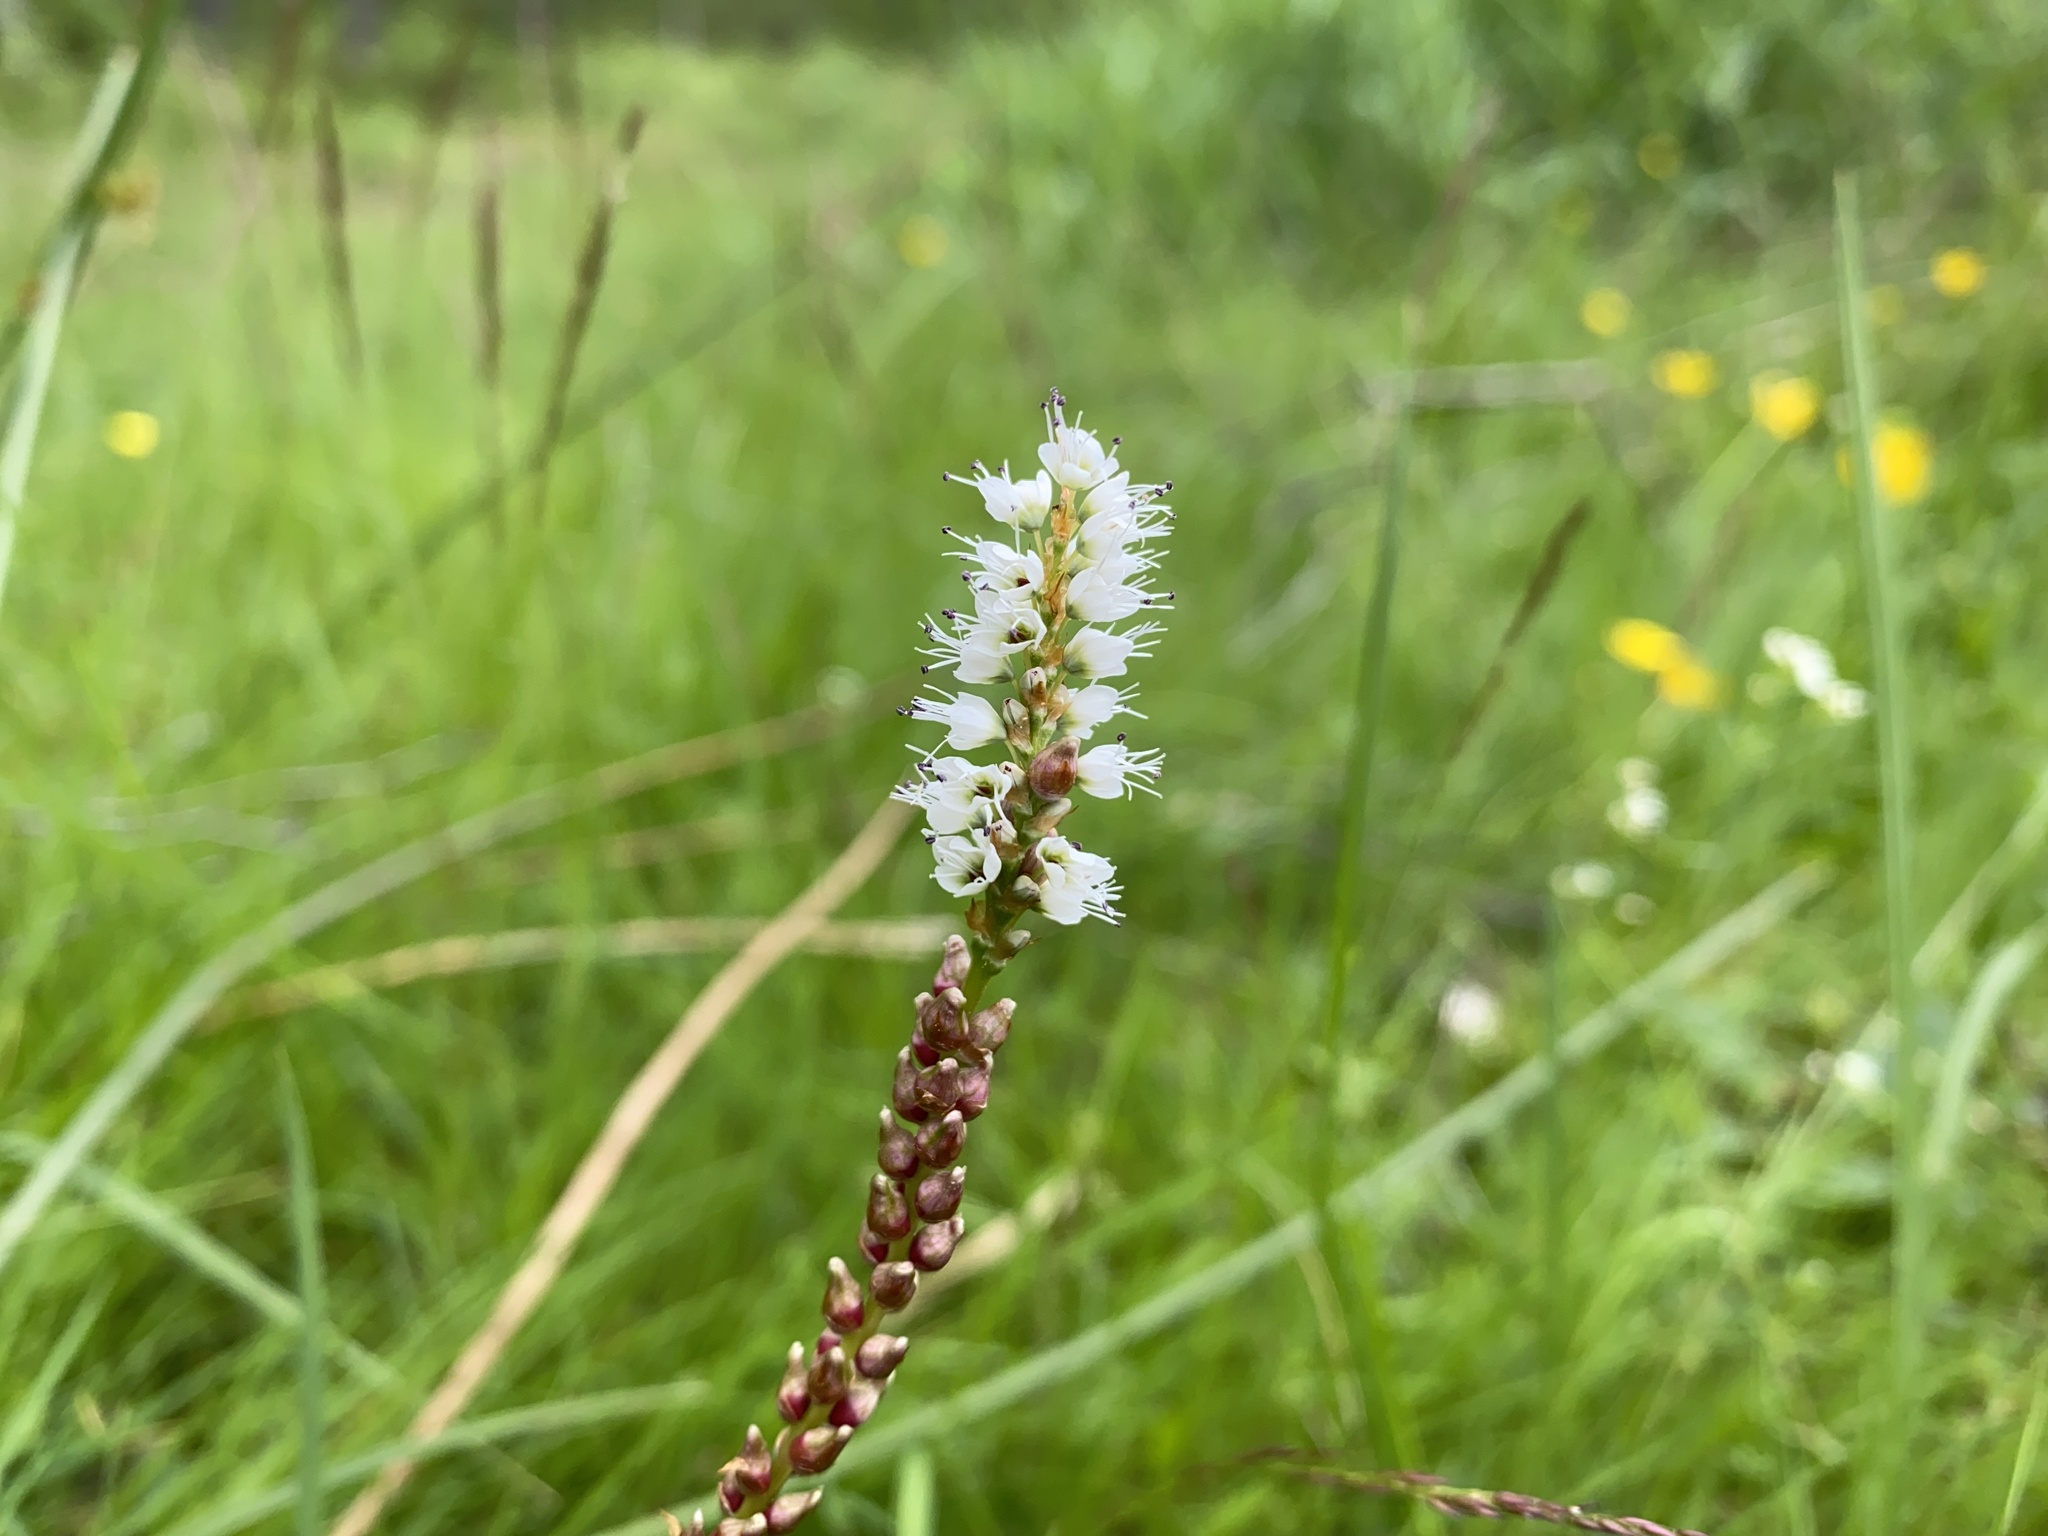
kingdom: Plantae
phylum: Tracheophyta
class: Magnoliopsida
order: Caryophyllales
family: Polygonaceae
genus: Bistorta
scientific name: Bistorta vivipara
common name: Alpine bistort
